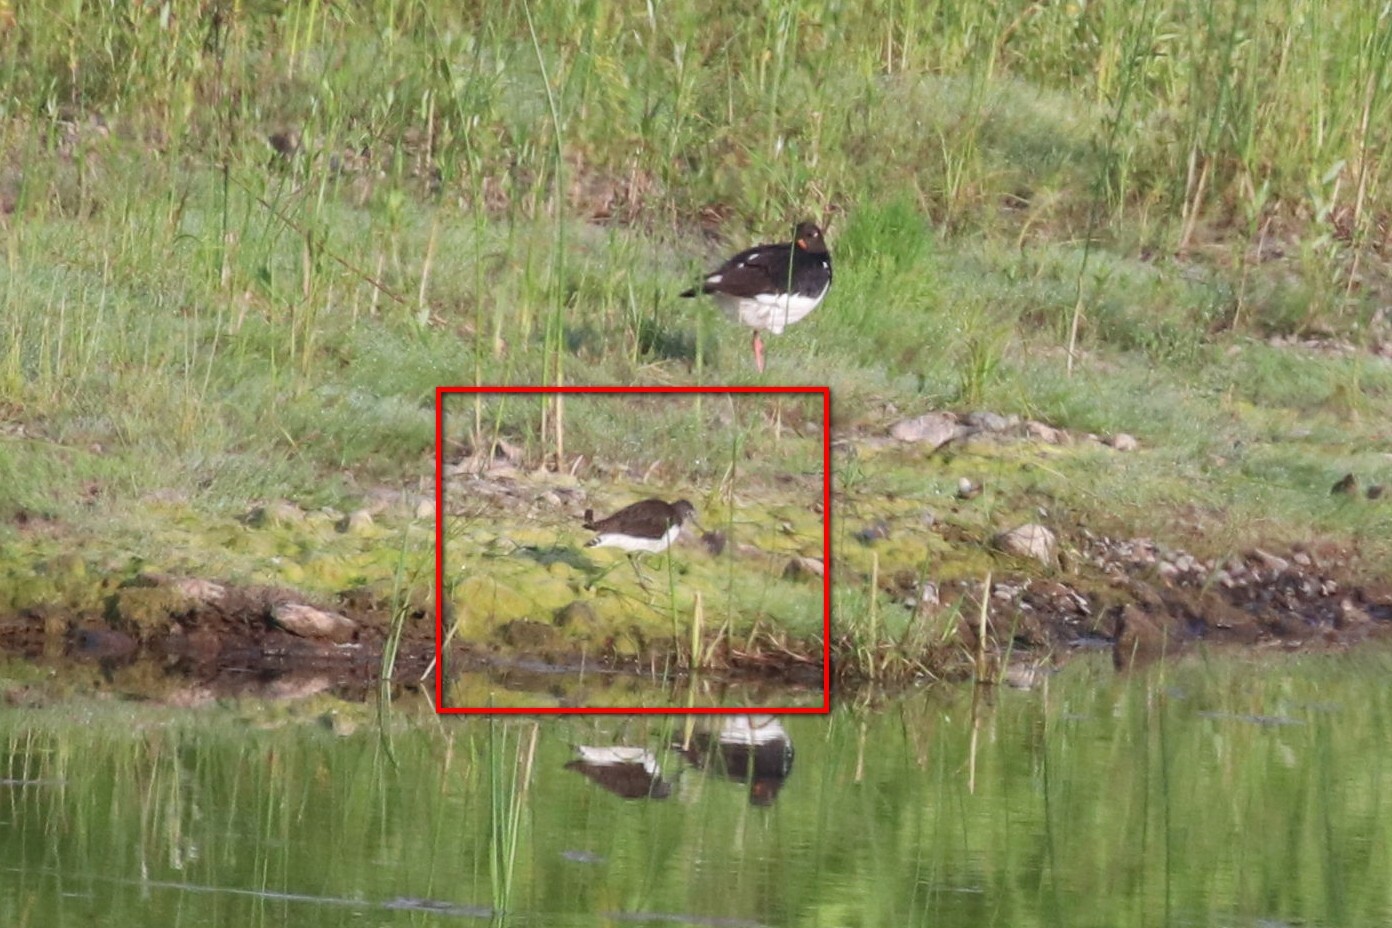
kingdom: Animalia
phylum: Chordata
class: Aves
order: Charadriiformes
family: Scolopacidae
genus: Tringa
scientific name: Tringa ochropus
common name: Green sandpiper
